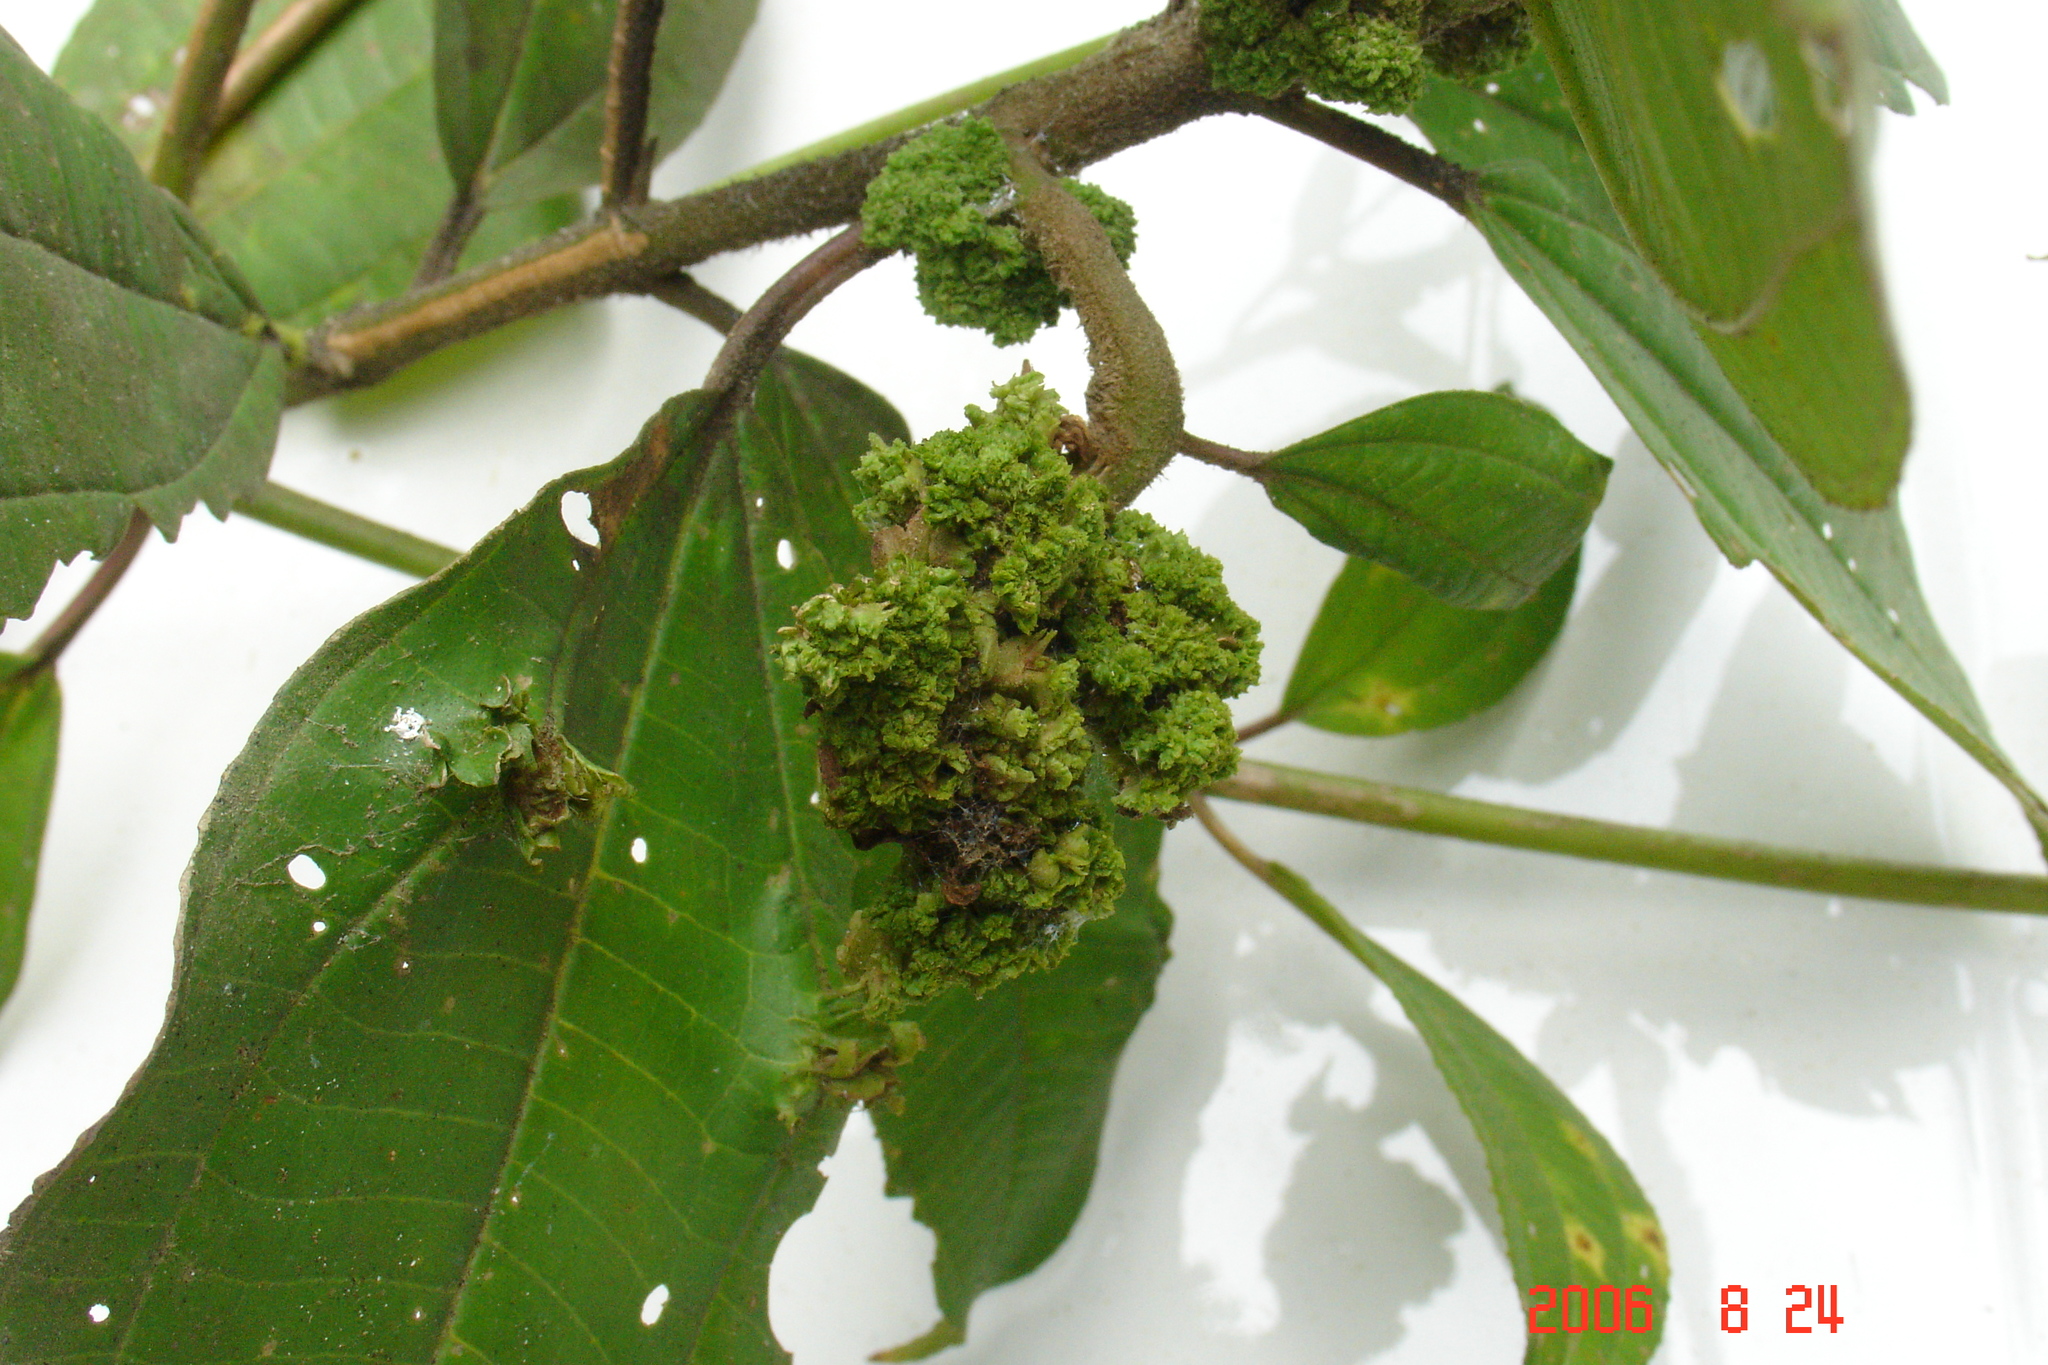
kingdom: Plantae
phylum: Tracheophyta
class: Magnoliopsida
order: Myrtales
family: Melastomataceae
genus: Miconia
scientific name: Miconia subhirsuta
